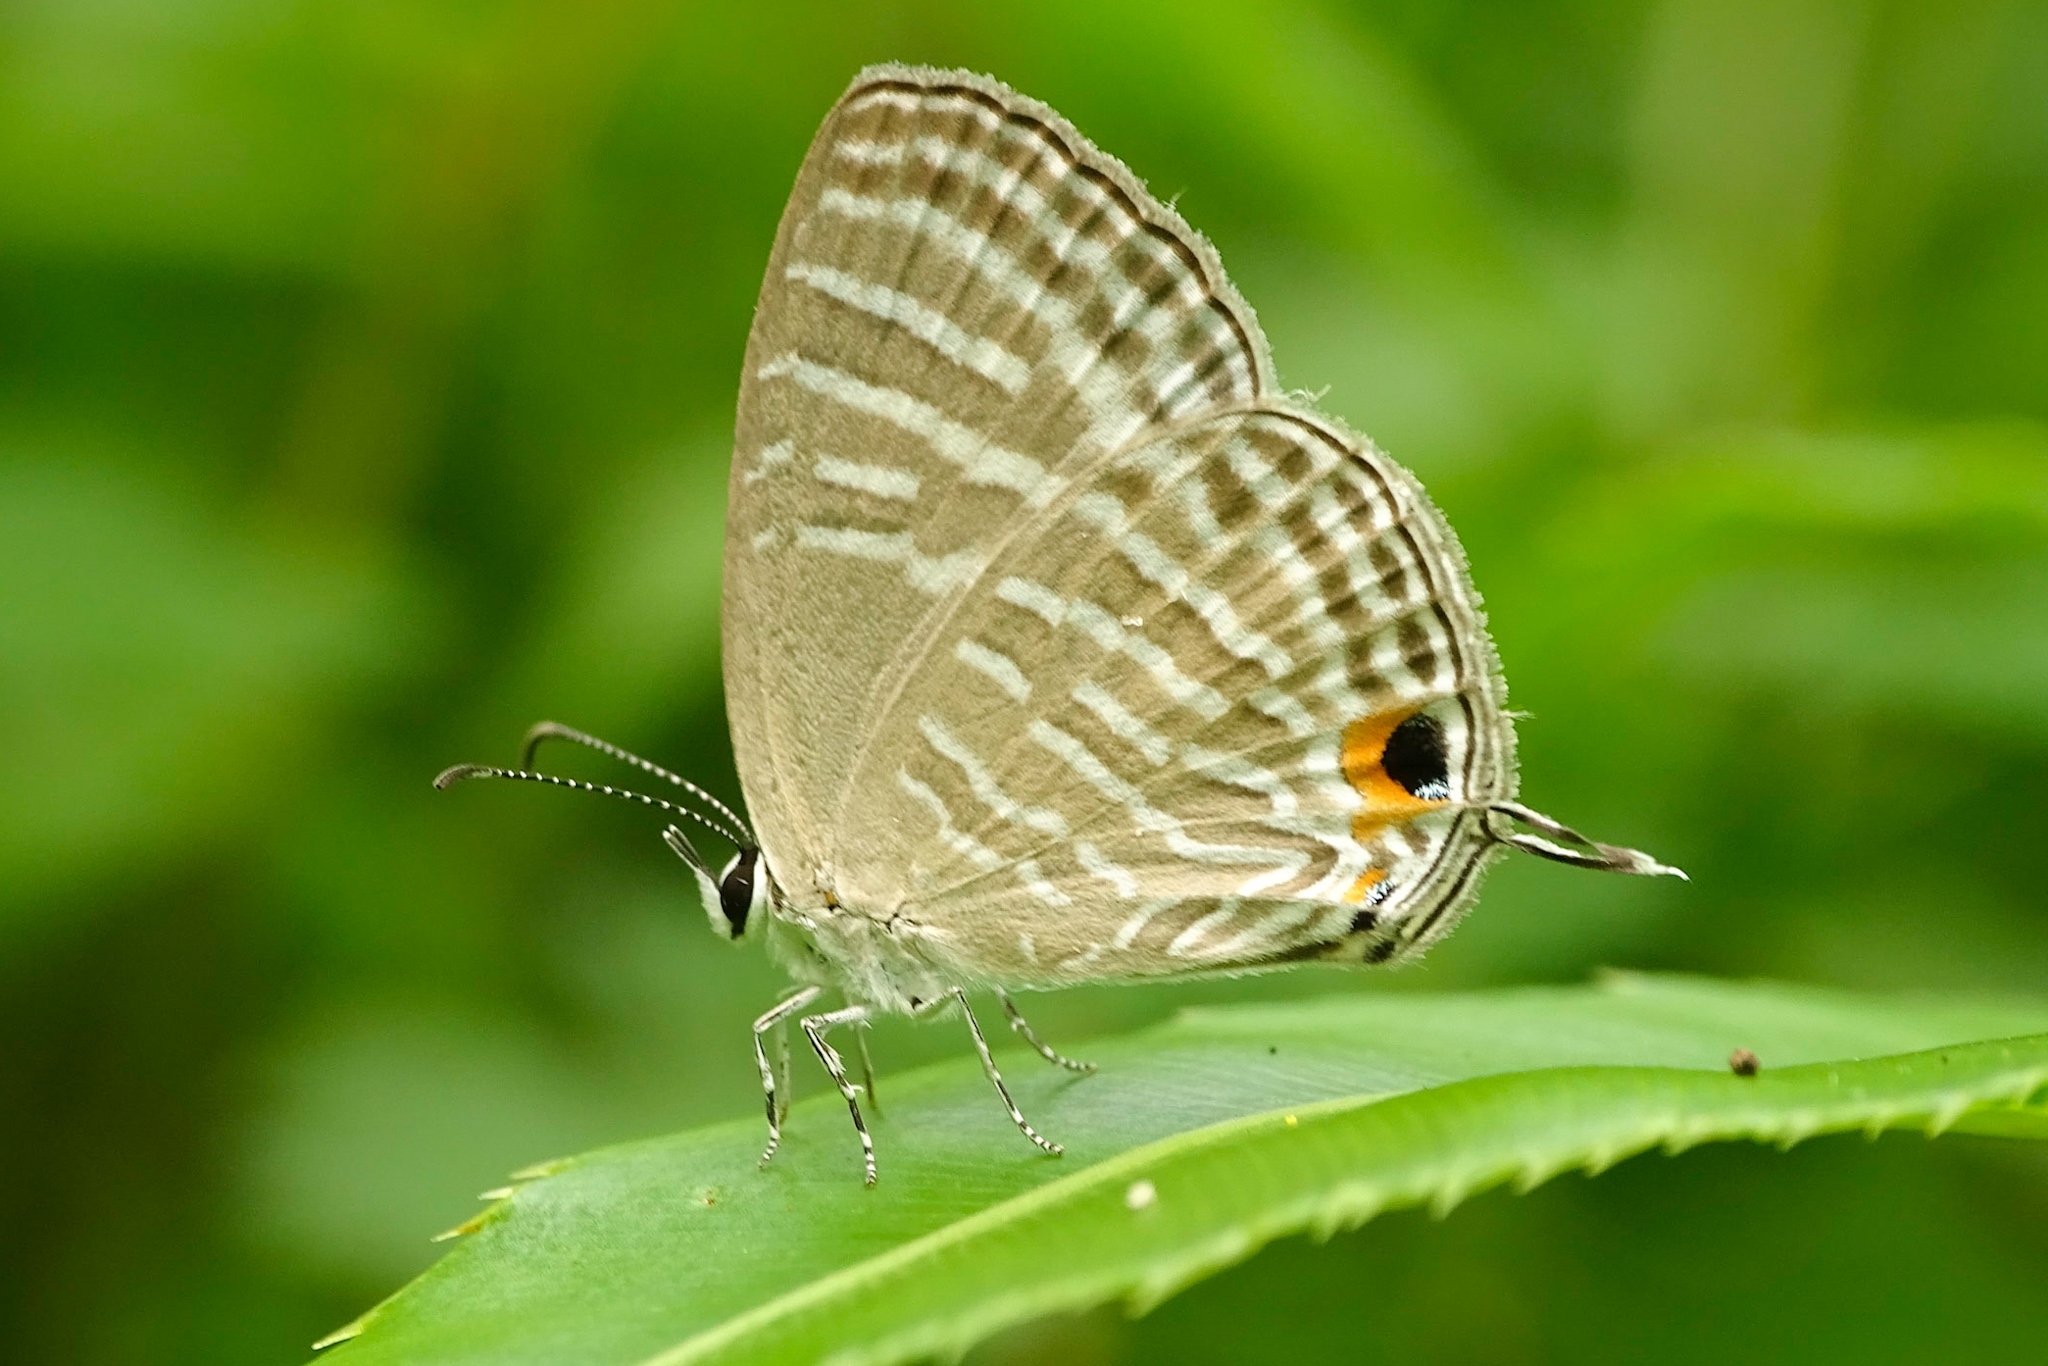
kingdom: Animalia
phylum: Arthropoda
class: Insecta
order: Lepidoptera
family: Lycaenidae
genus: Jamides
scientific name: Jamides celeno
